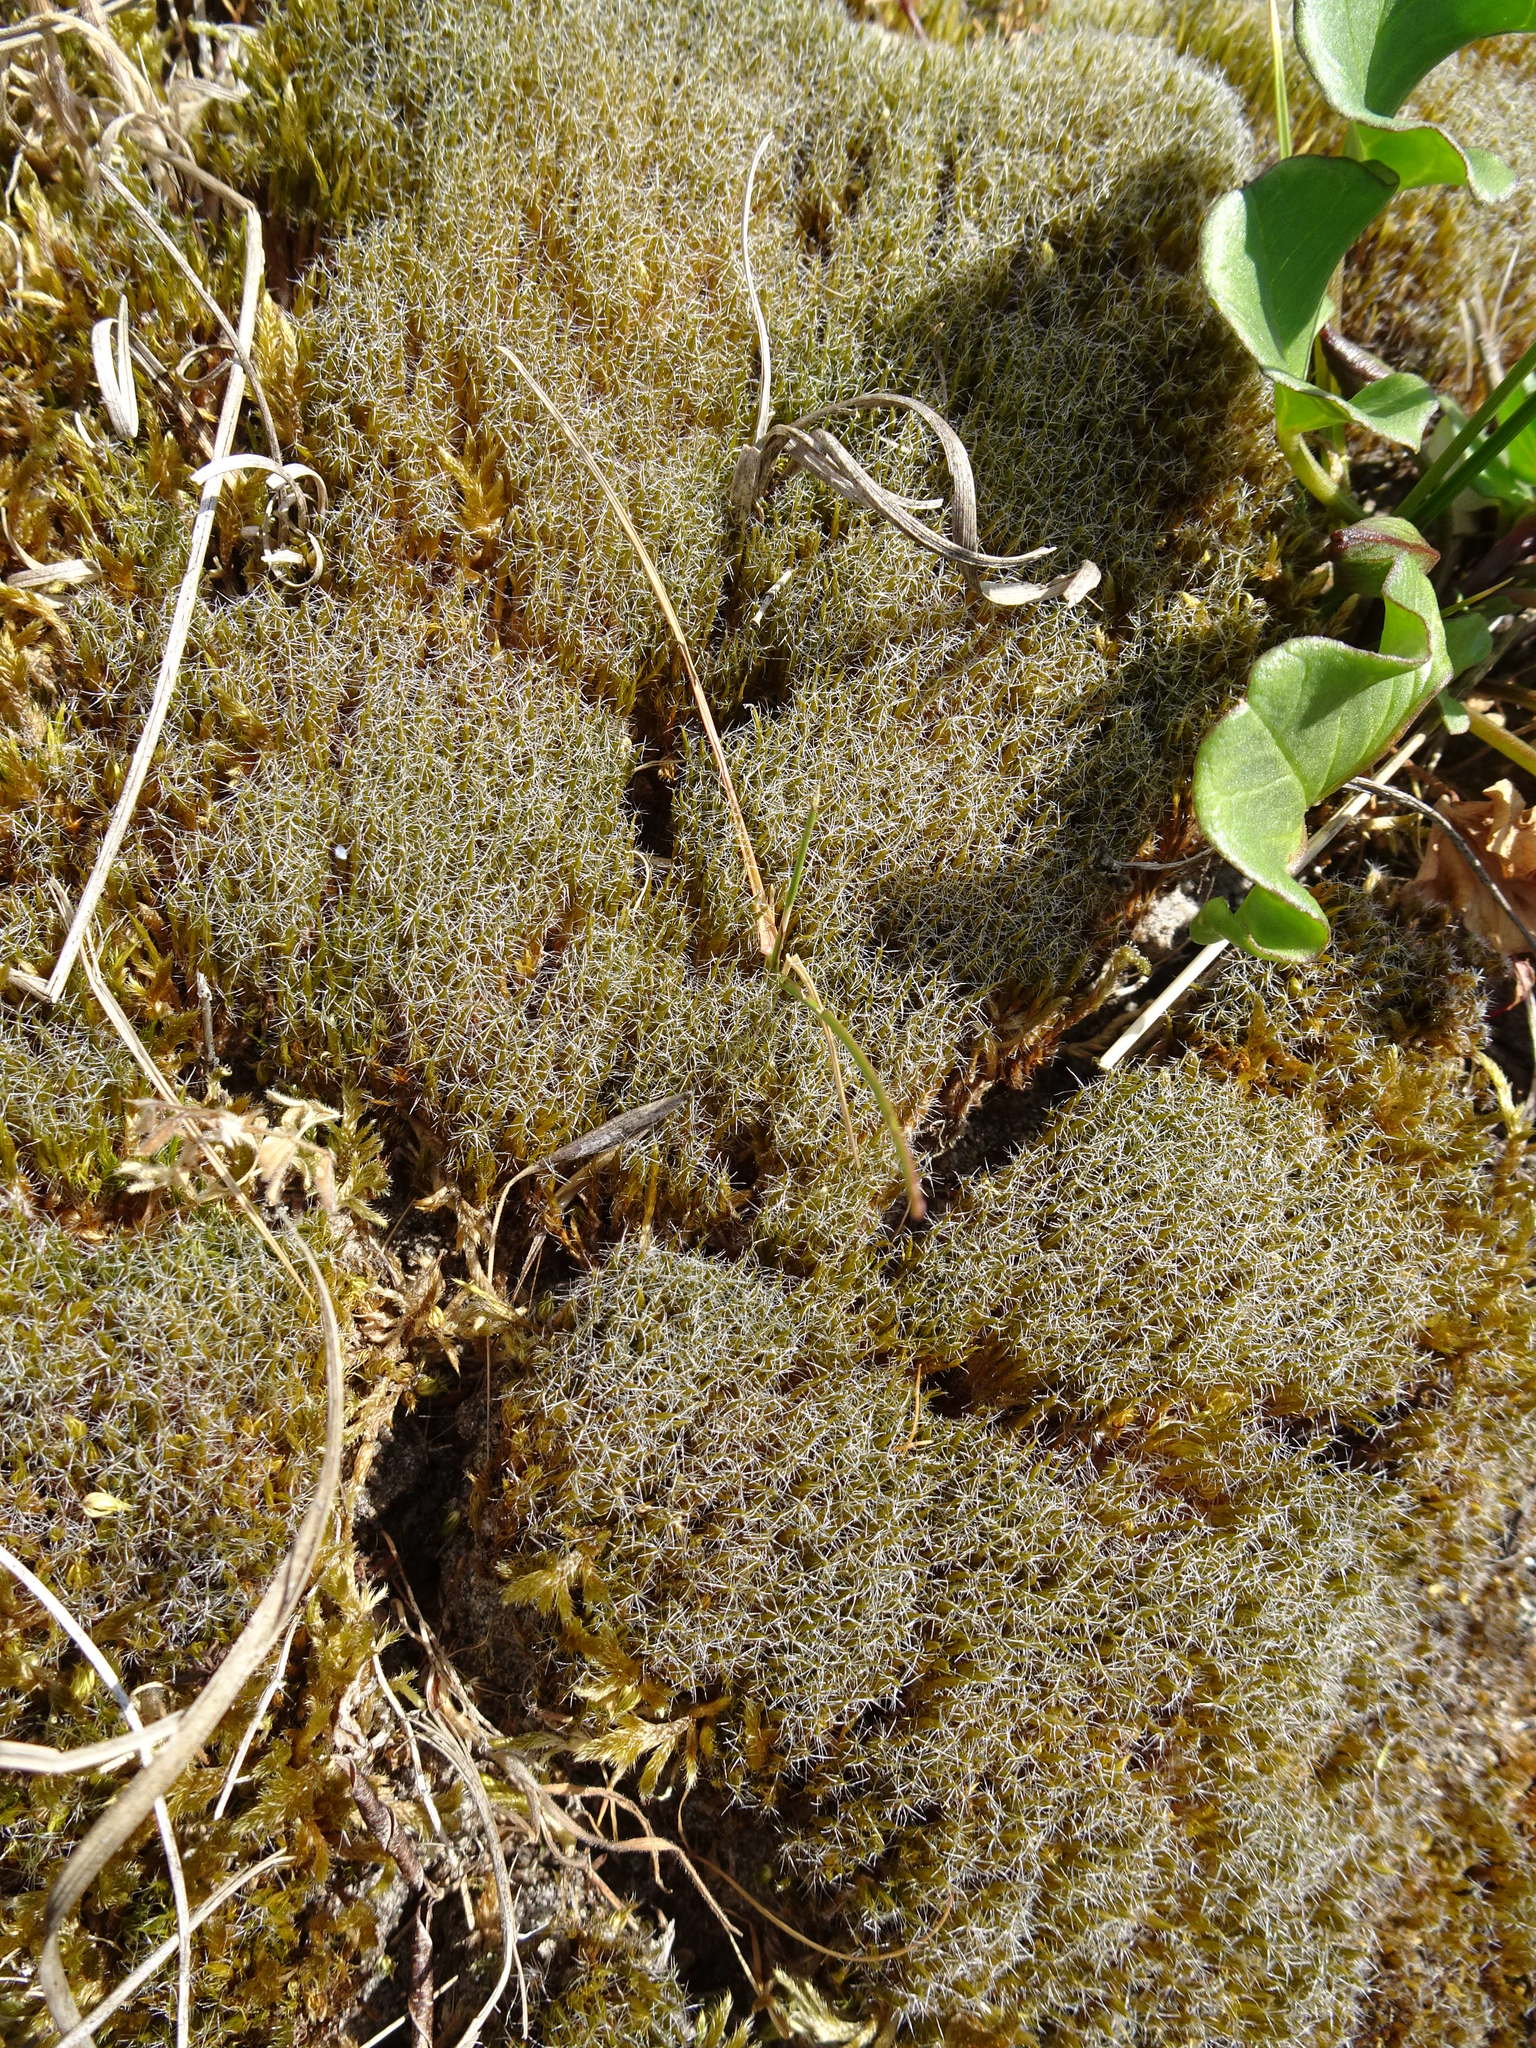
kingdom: Plantae
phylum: Bryophyta
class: Bryopsida
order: Dicranales
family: Leucobryaceae
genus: Campylopus
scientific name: Campylopus introflexus
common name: Heath star moss
